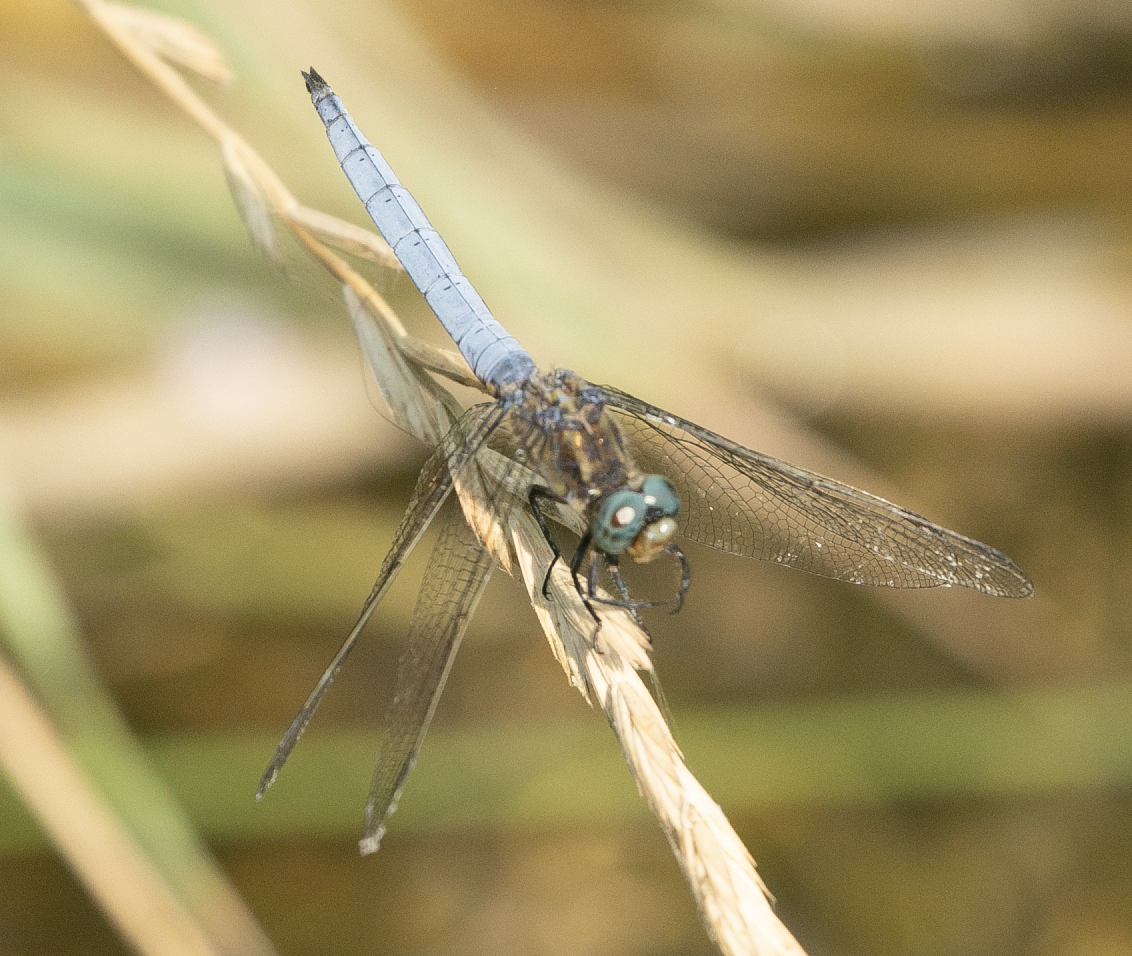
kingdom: Animalia
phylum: Arthropoda
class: Insecta
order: Odonata
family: Libellulidae
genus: Orthetrum
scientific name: Orthetrum coerulescens
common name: Keeled skimmer
